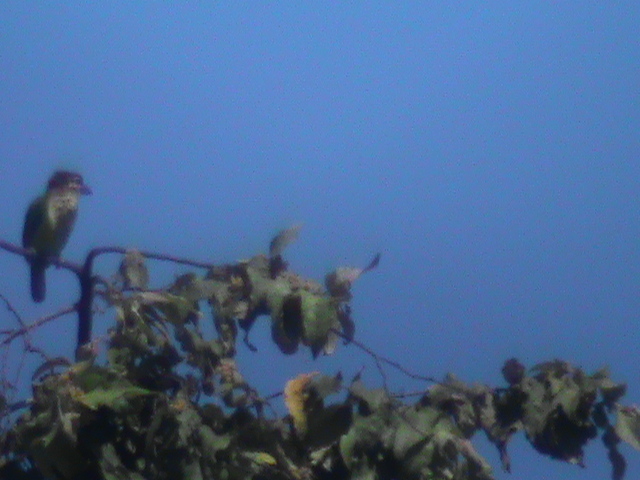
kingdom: Animalia
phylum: Chordata
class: Aves
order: Piciformes
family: Megalaimidae
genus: Psilopogon
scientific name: Psilopogon viridis
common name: White-cheeked barbet
